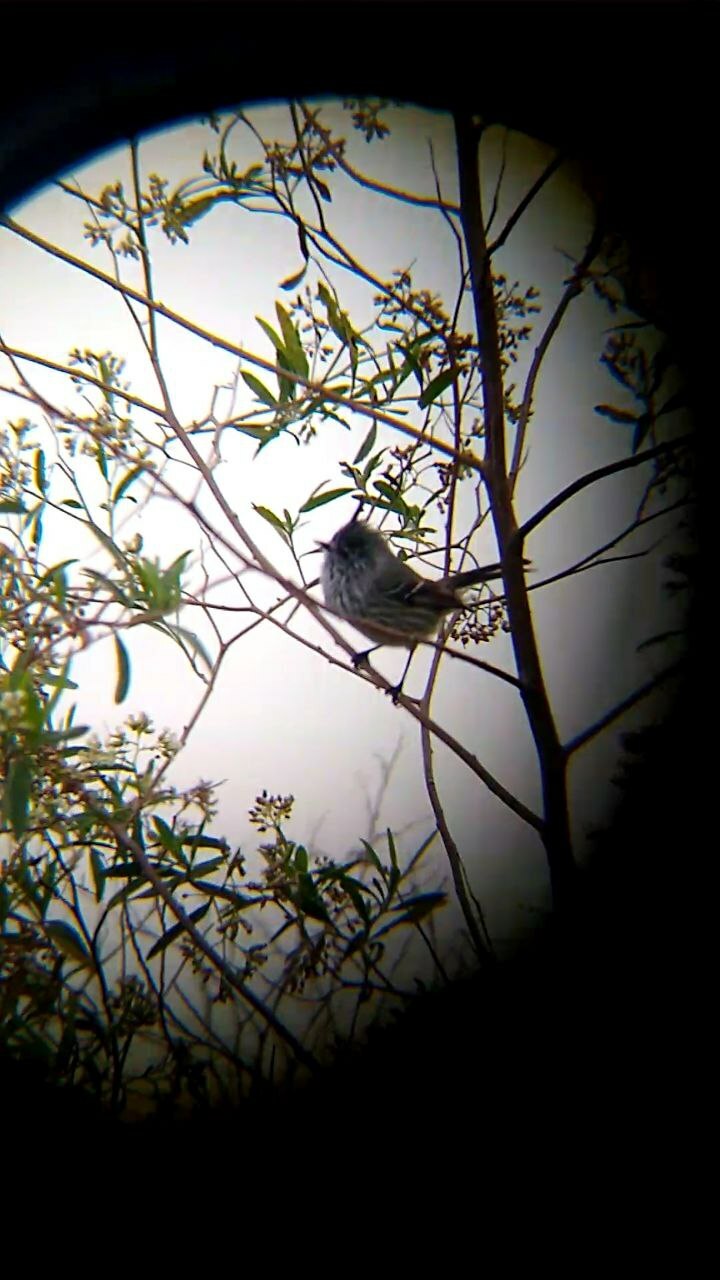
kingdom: Animalia
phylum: Chordata
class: Aves
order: Passeriformes
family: Tyrannidae
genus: Anairetes
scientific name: Anairetes parulus
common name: Tufted tit-tyrant
